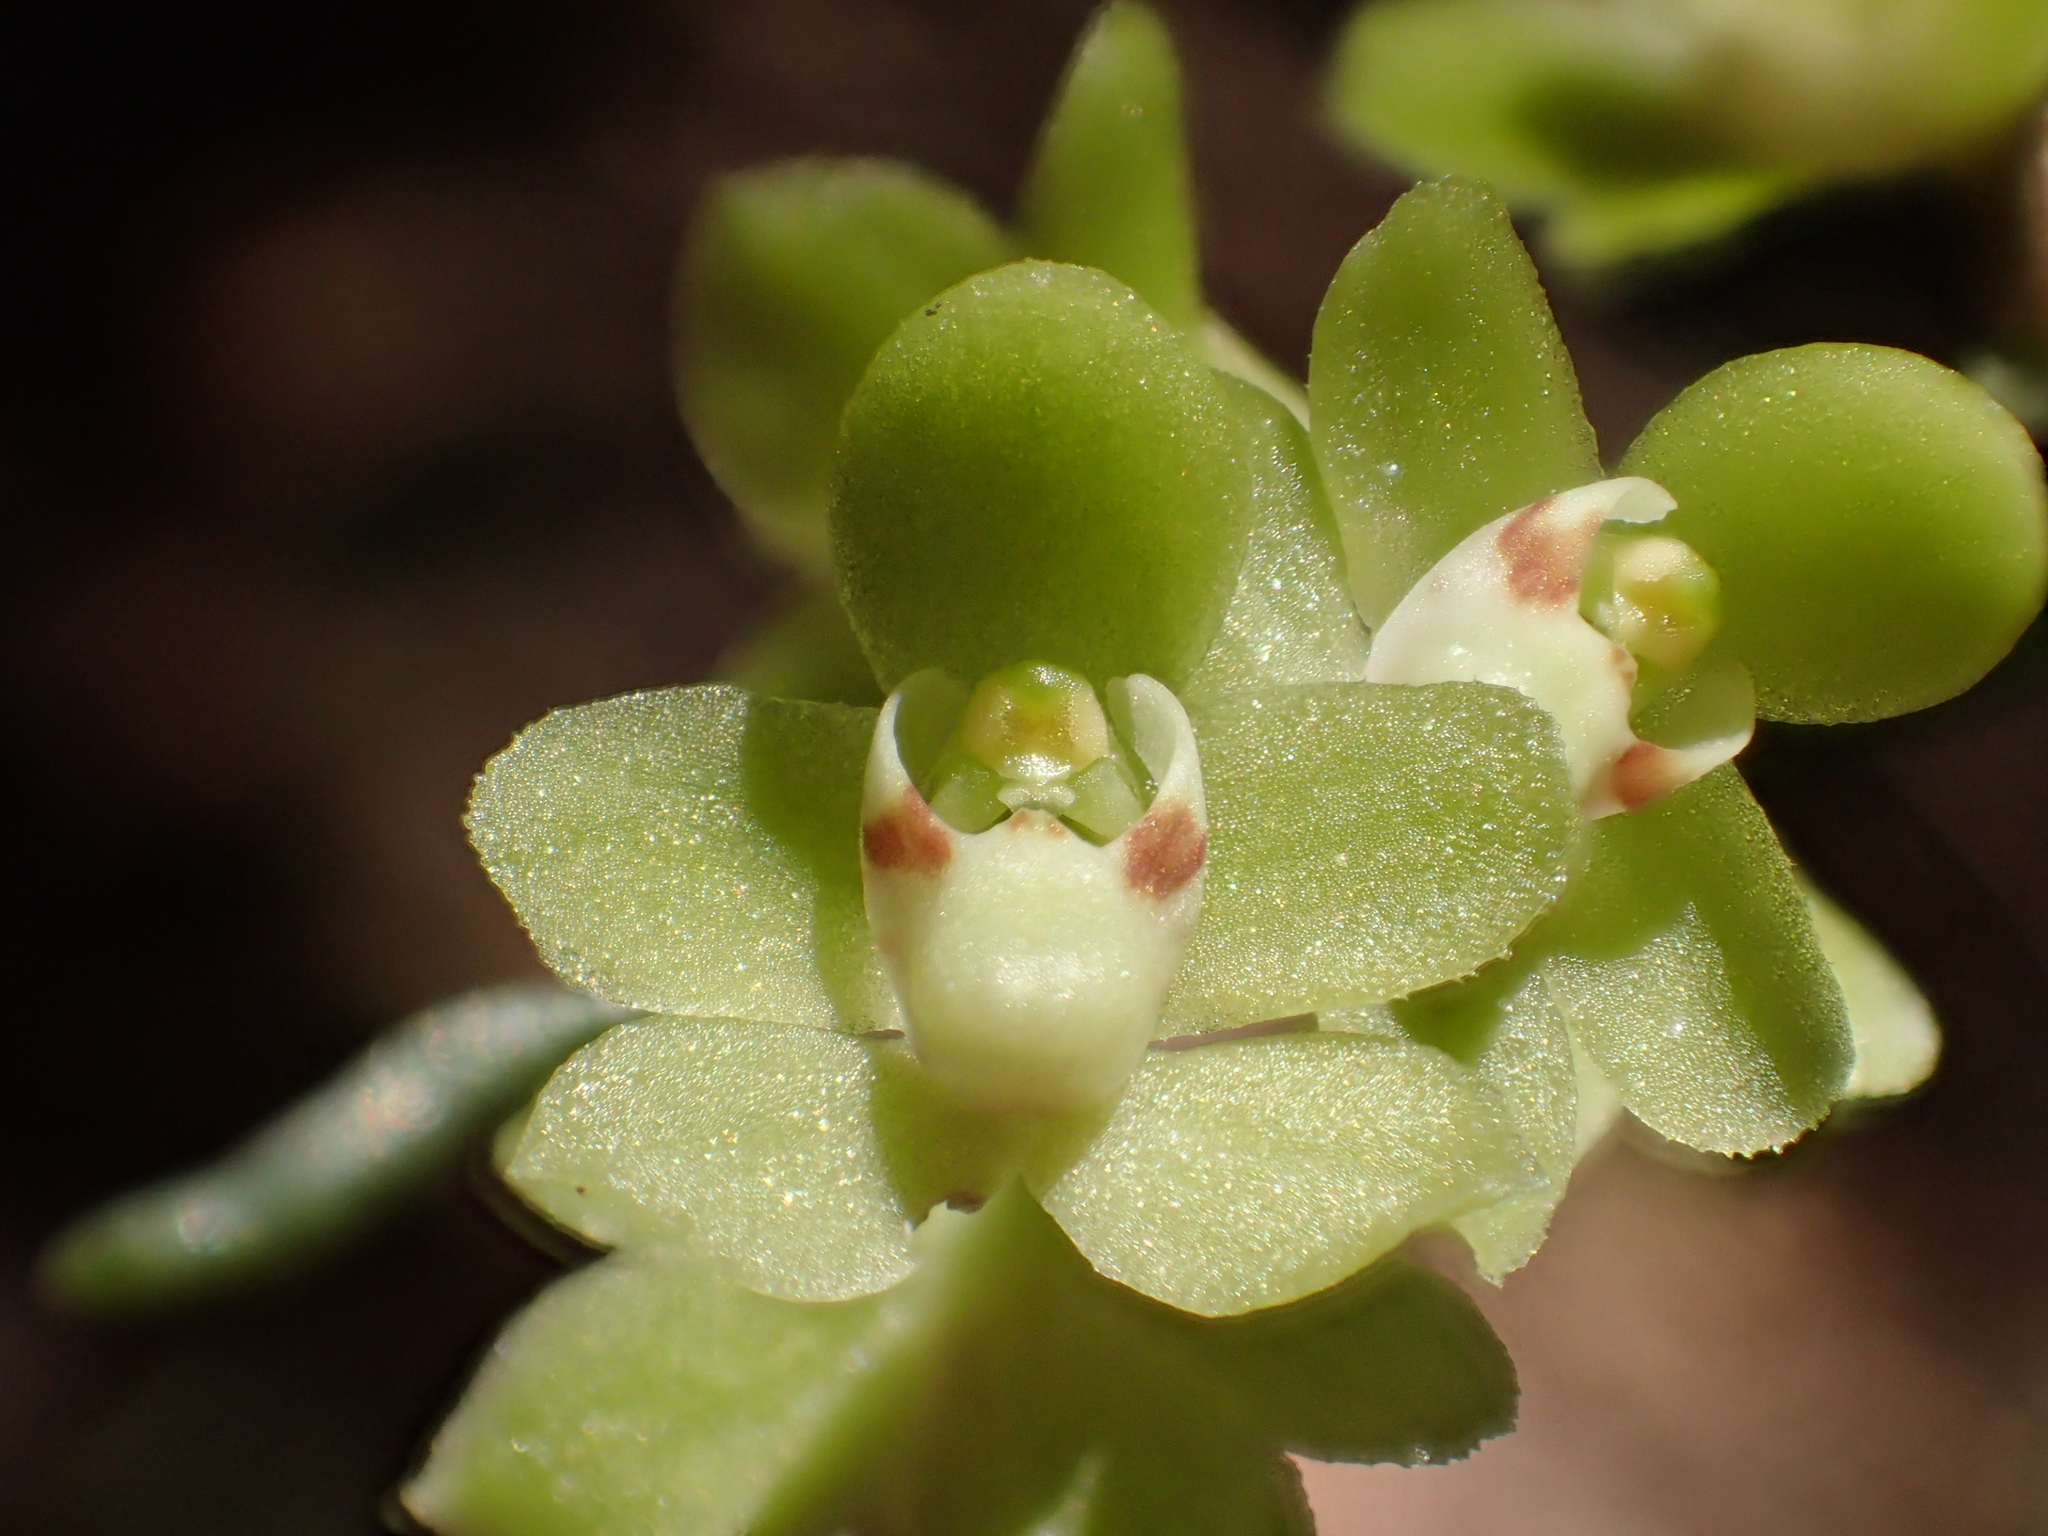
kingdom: Plantae
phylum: Tracheophyta
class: Liliopsida
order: Asparagales
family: Orchidaceae
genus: Chiloschista
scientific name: Chiloschista segawae
